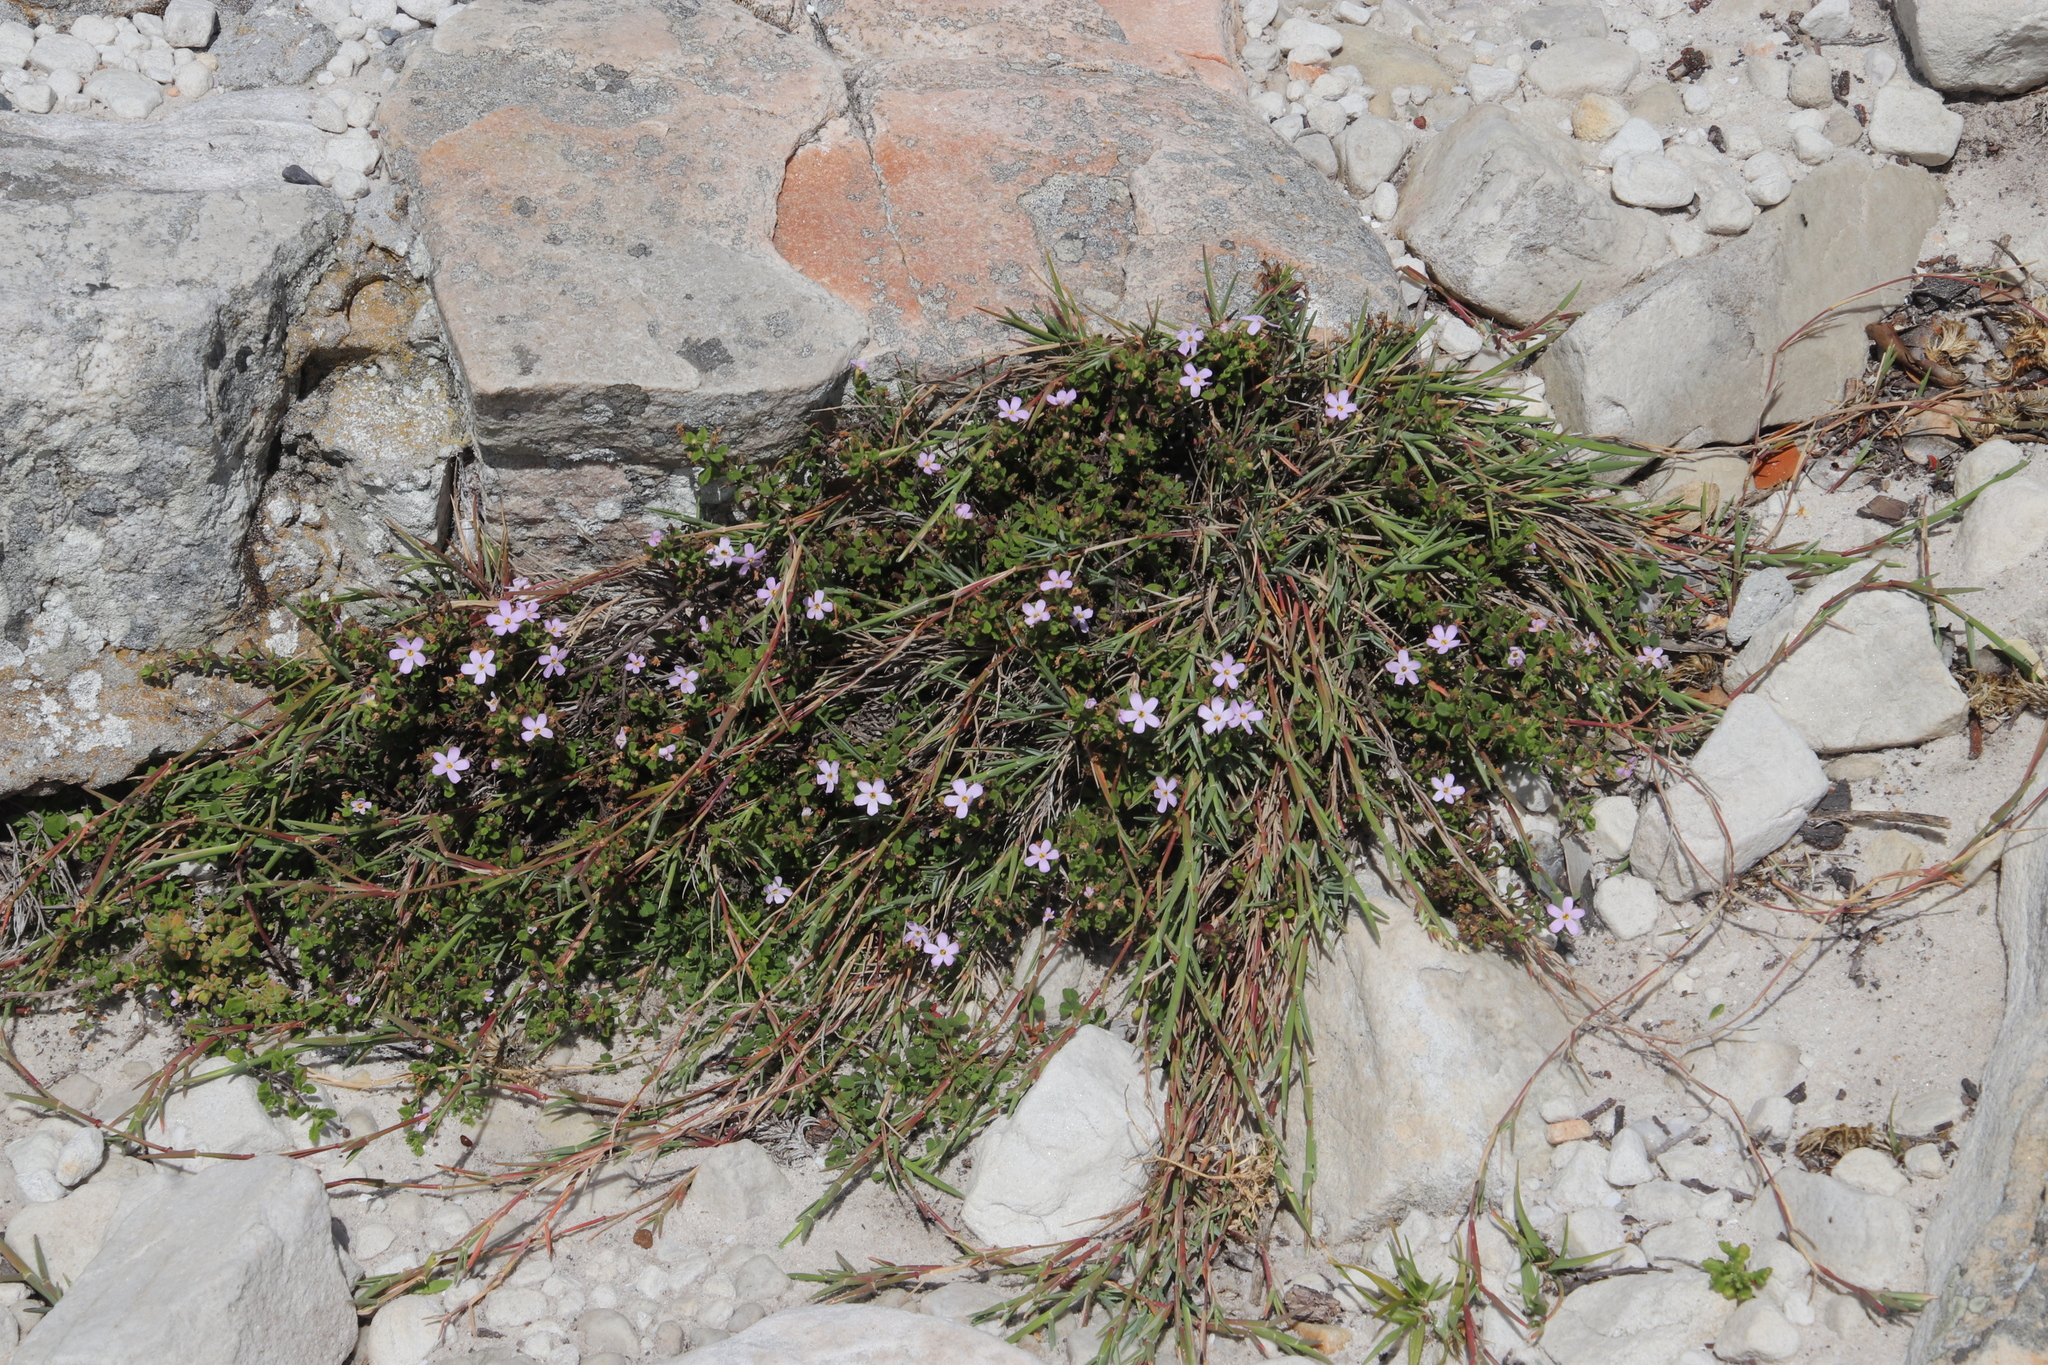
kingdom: Plantae
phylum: Tracheophyta
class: Magnoliopsida
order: Lamiales
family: Scrophulariaceae
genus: Chaenostoma
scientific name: Chaenostoma hispidum
